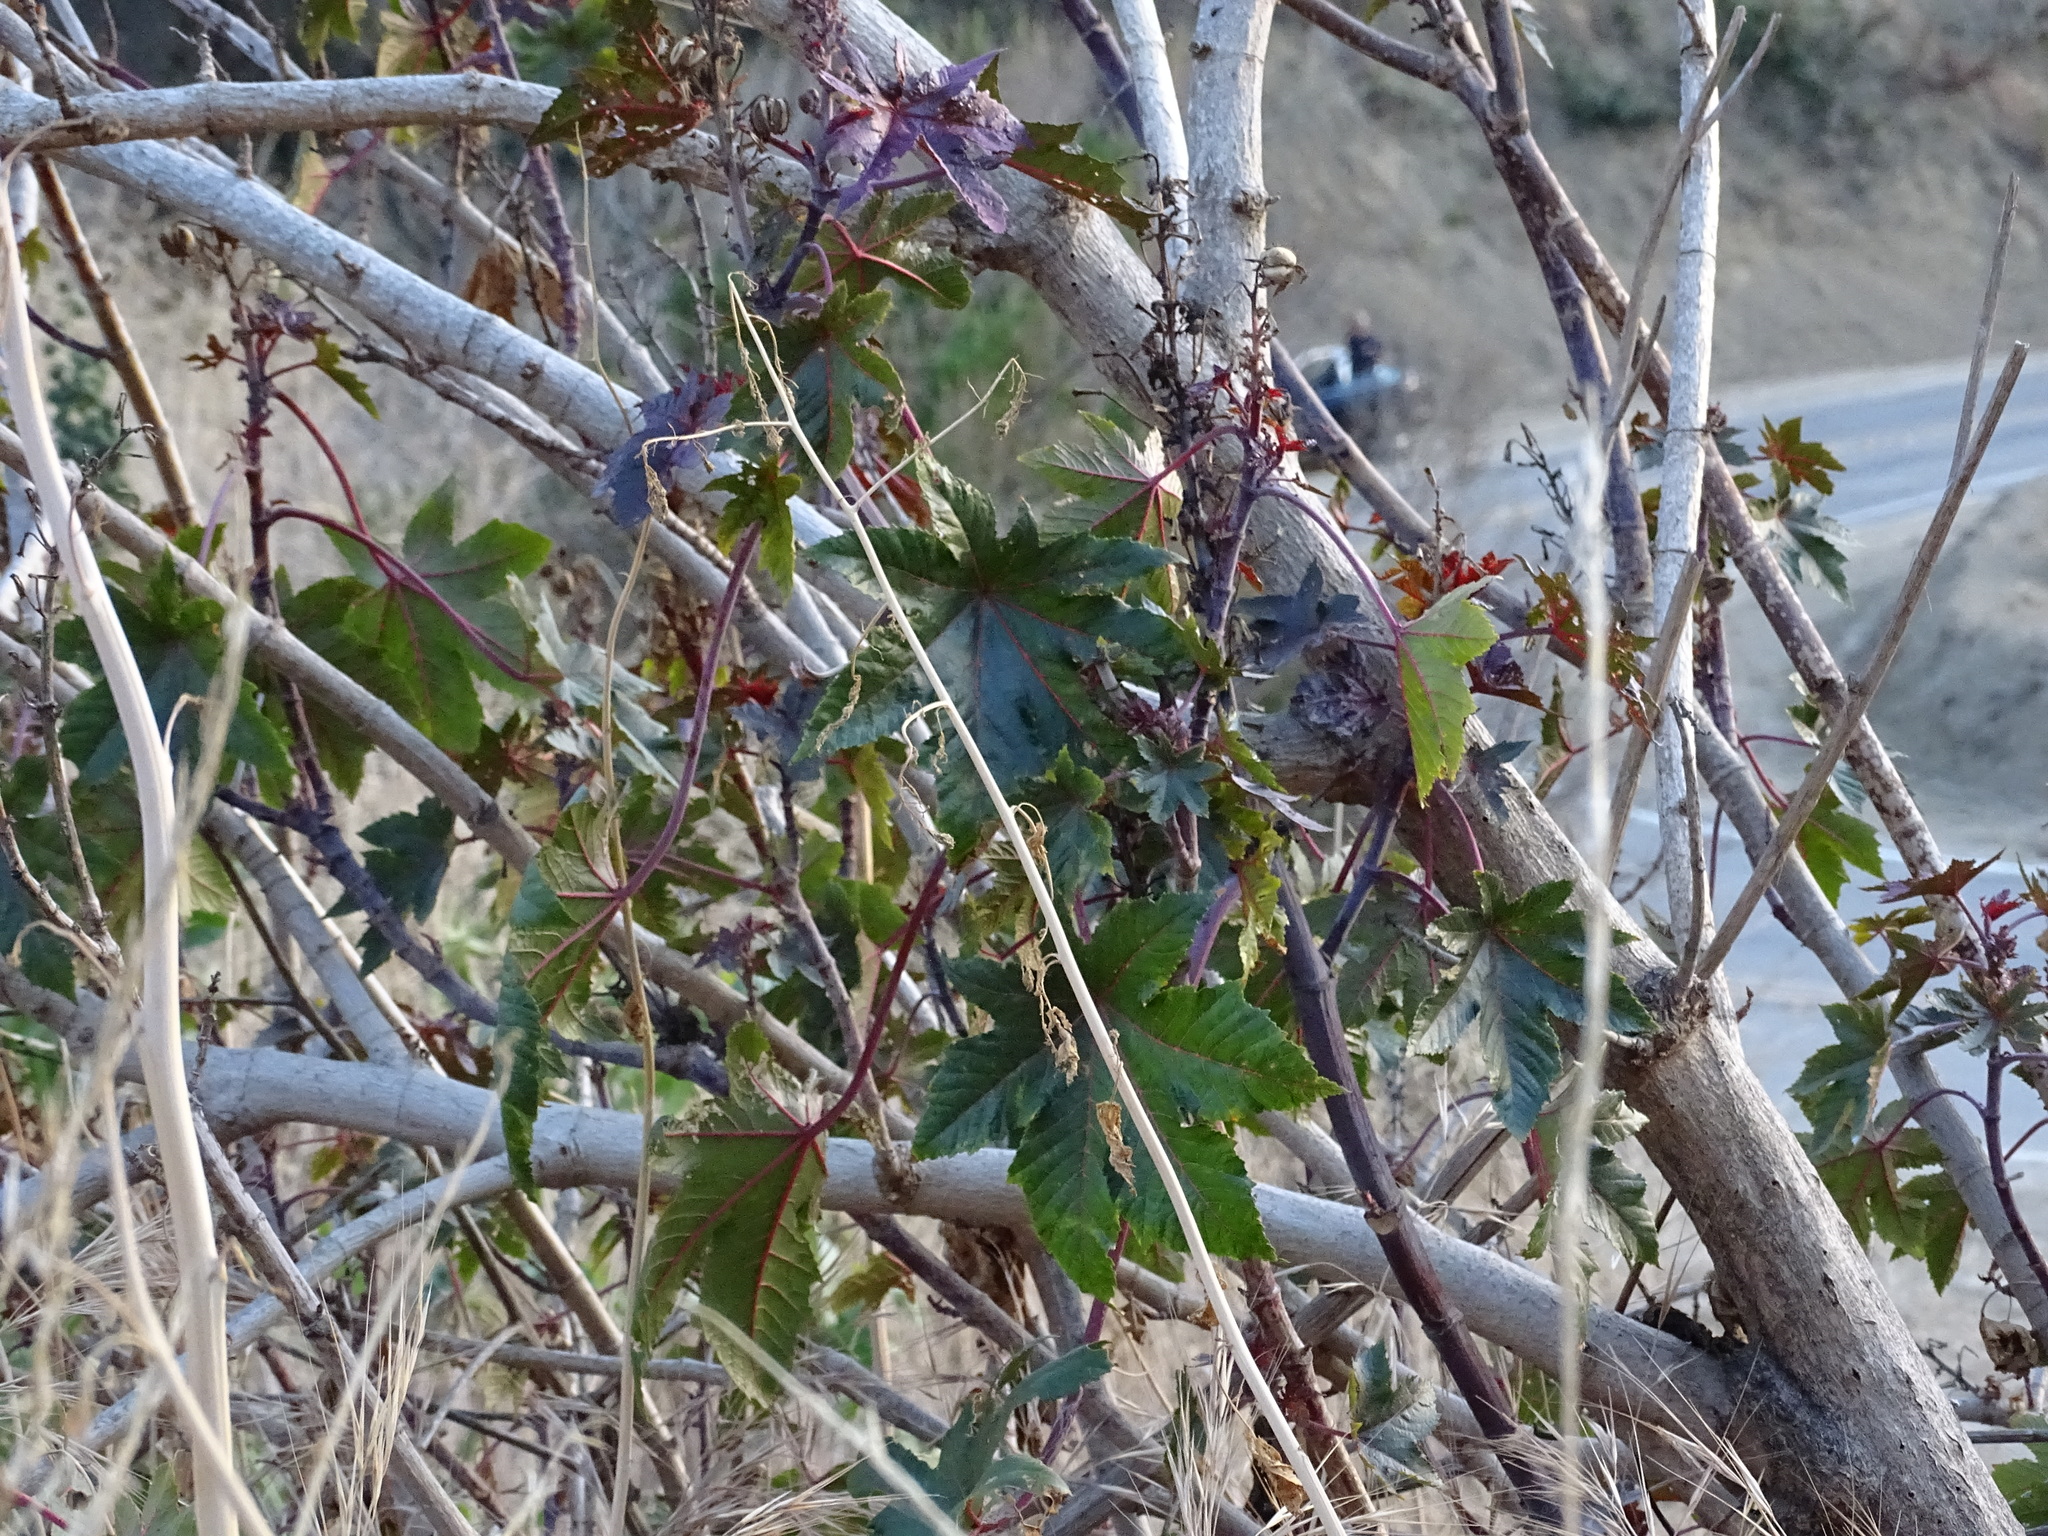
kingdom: Plantae
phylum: Tracheophyta
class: Magnoliopsida
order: Malpighiales
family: Euphorbiaceae
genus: Ricinus
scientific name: Ricinus communis
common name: Castor-oil-plant
